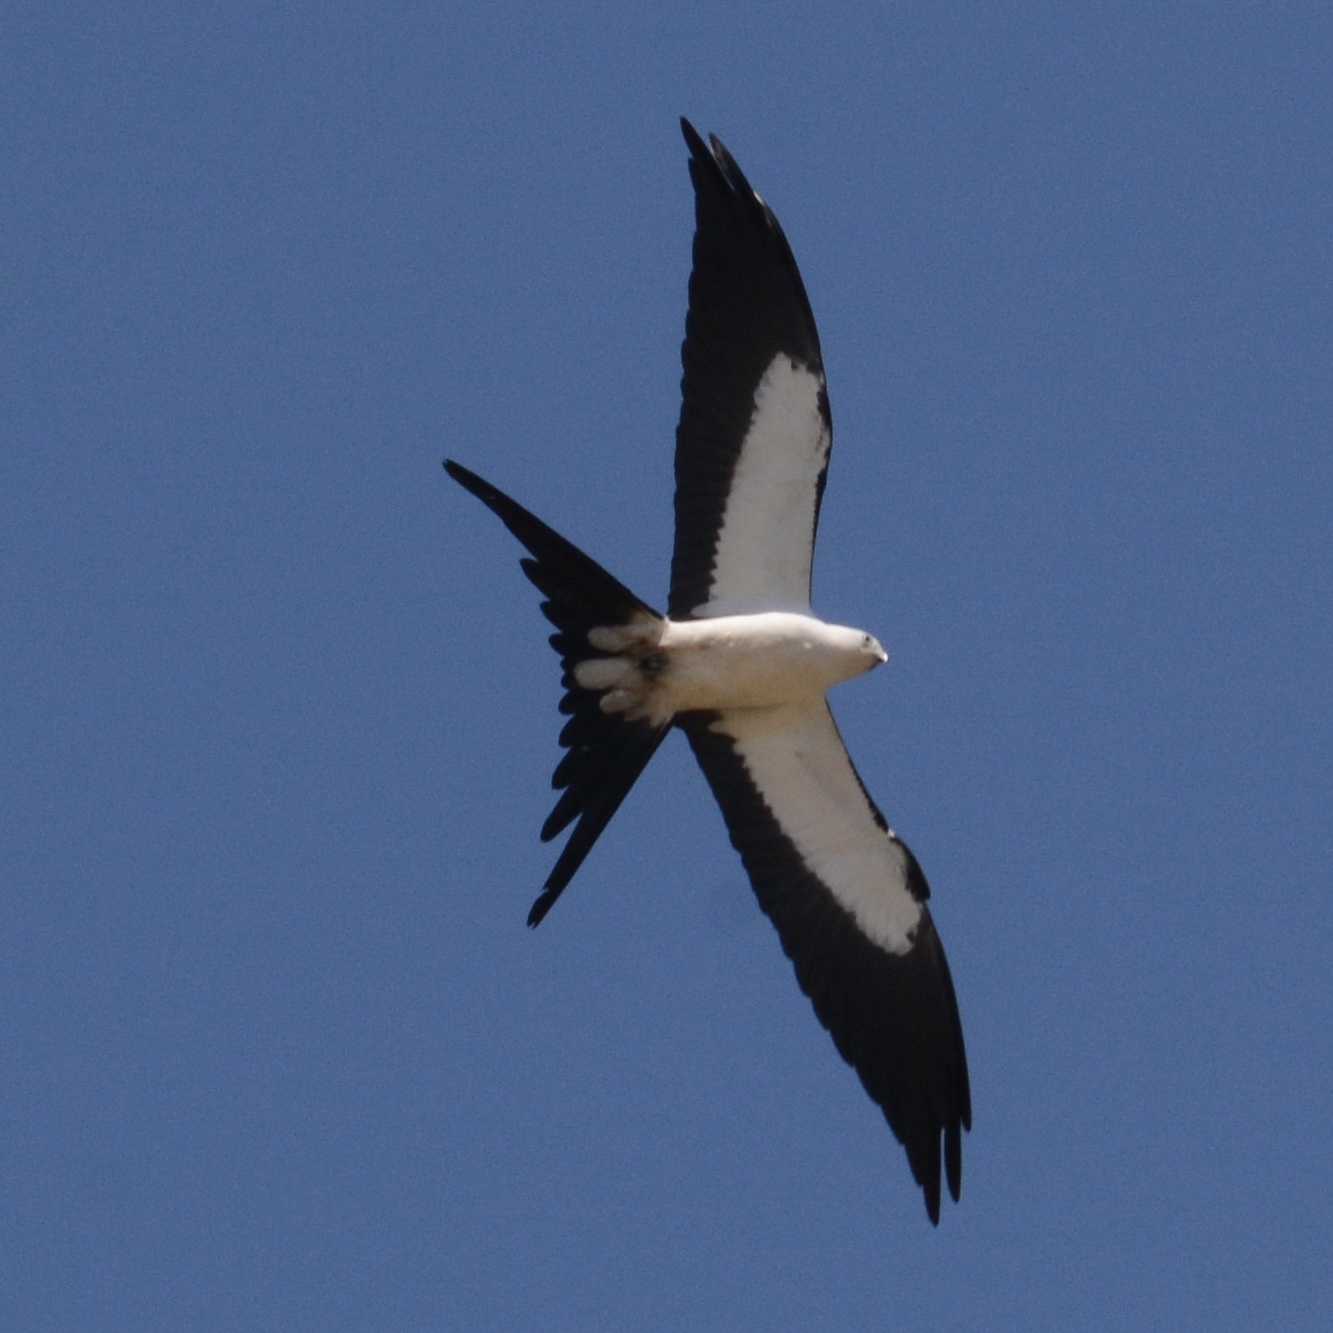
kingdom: Animalia
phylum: Chordata
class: Aves
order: Accipitriformes
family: Accipitridae
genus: Elanoides
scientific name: Elanoides forficatus
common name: Swallow-tailed kite
